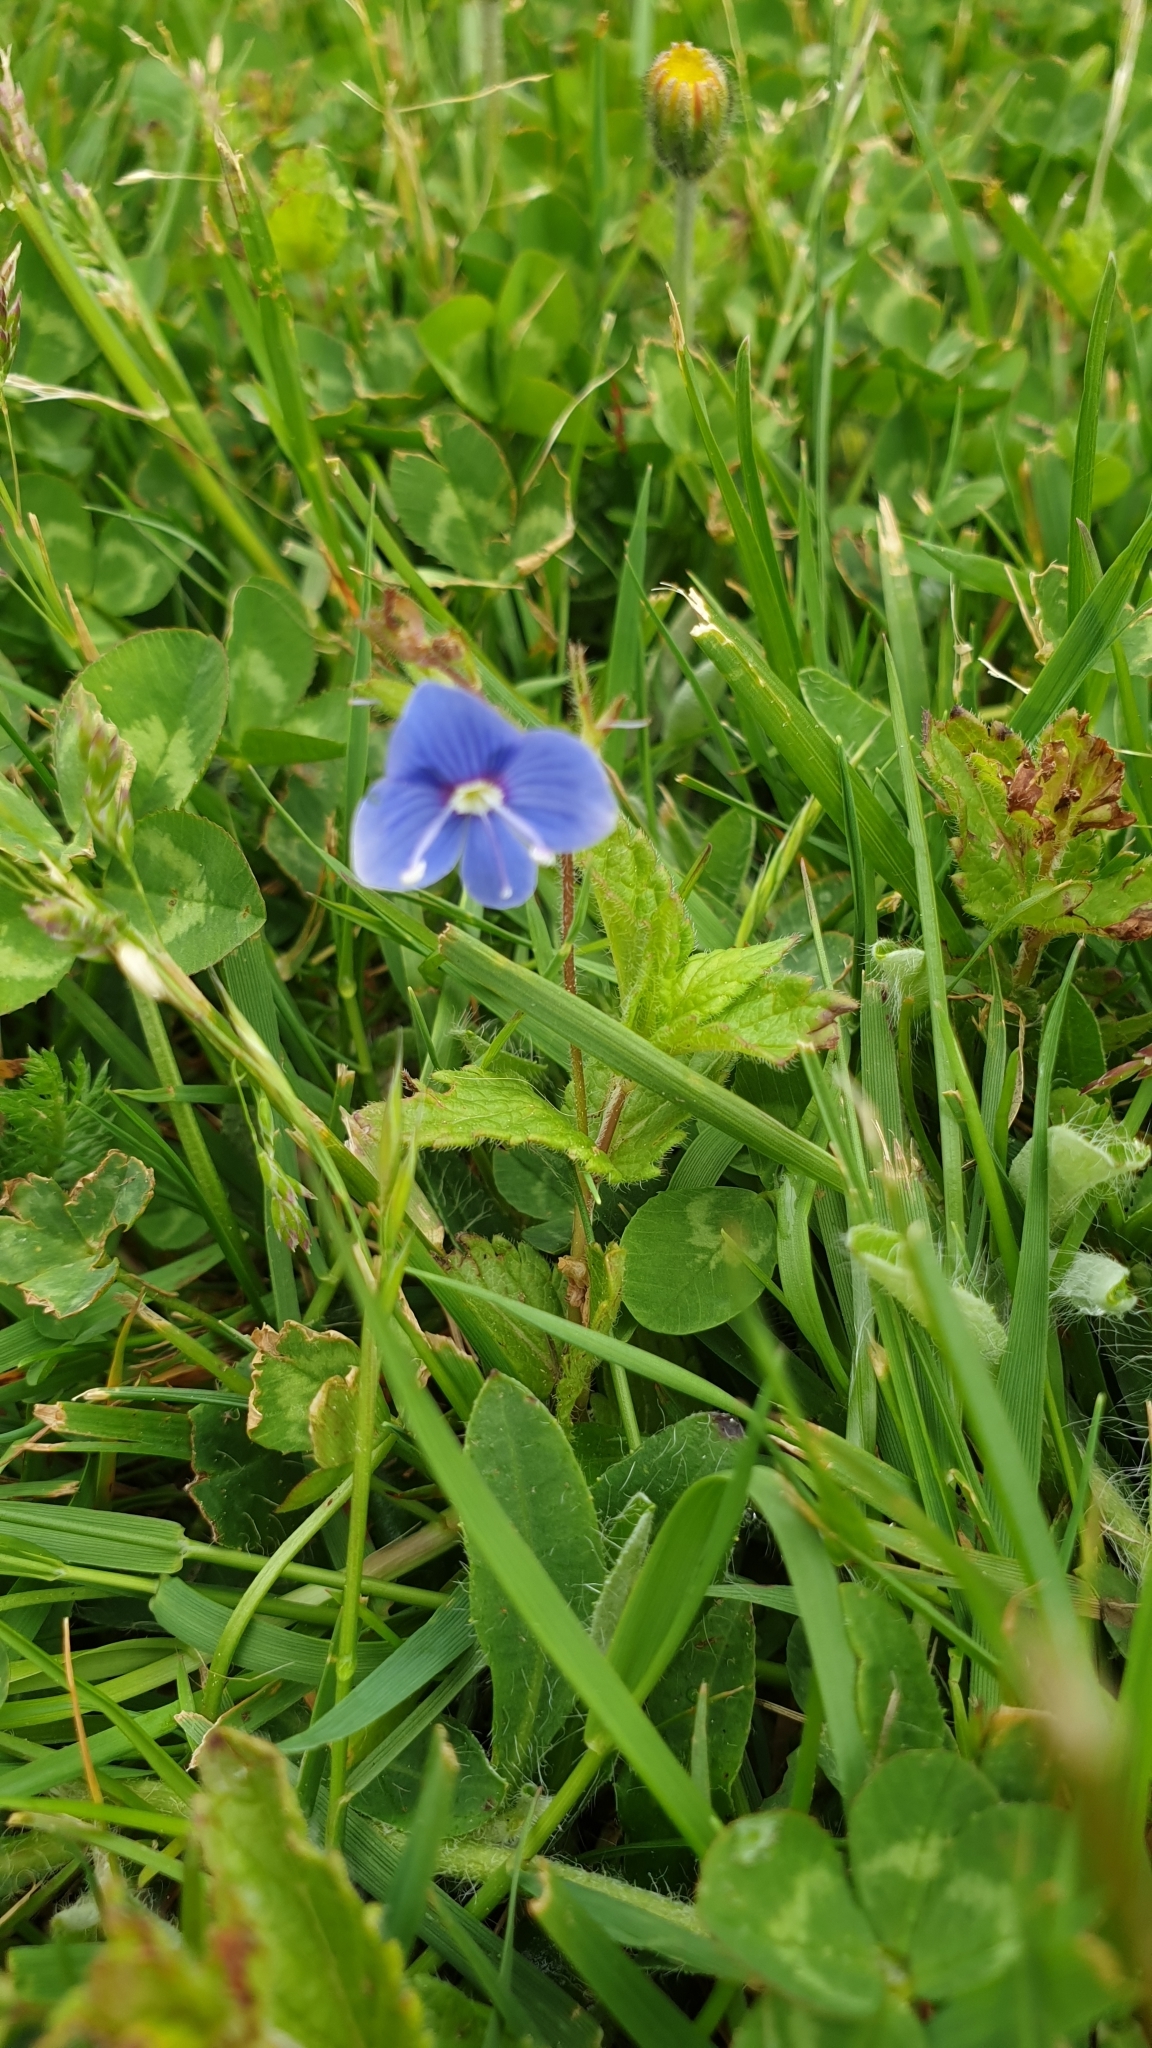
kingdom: Plantae
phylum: Tracheophyta
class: Magnoliopsida
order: Lamiales
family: Plantaginaceae
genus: Veronica
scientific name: Veronica chamaedrys
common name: Germander speedwell
